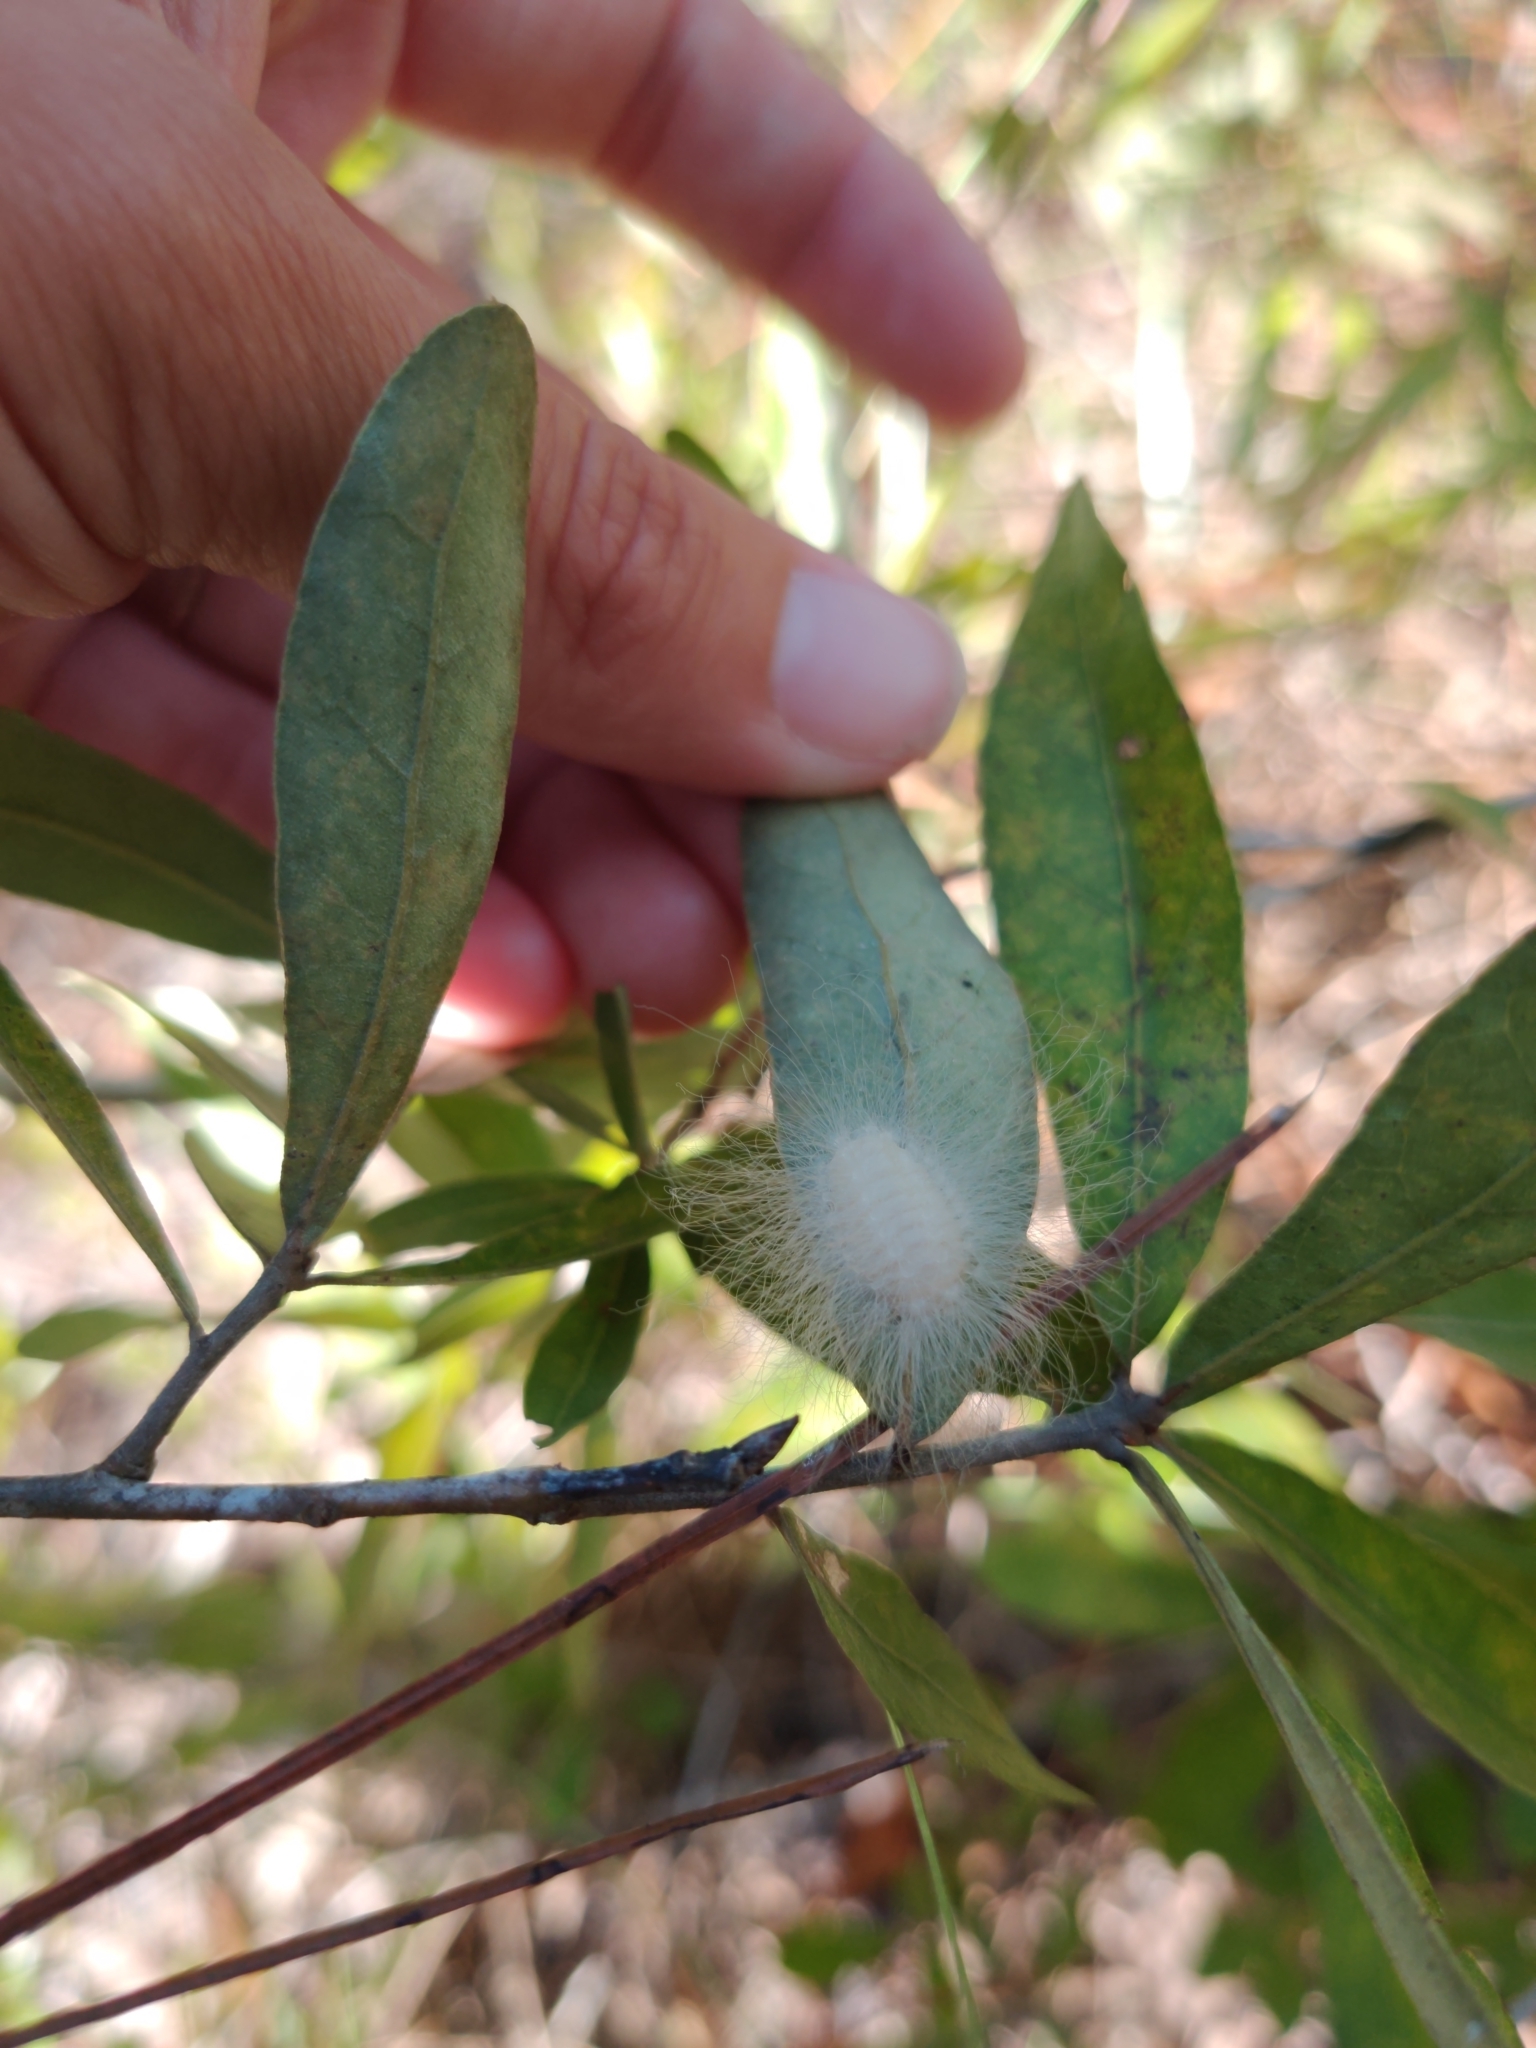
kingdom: Animalia
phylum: Arthropoda
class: Insecta
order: Lepidoptera
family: Megalopygidae
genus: Megalopyge
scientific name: Megalopyge
